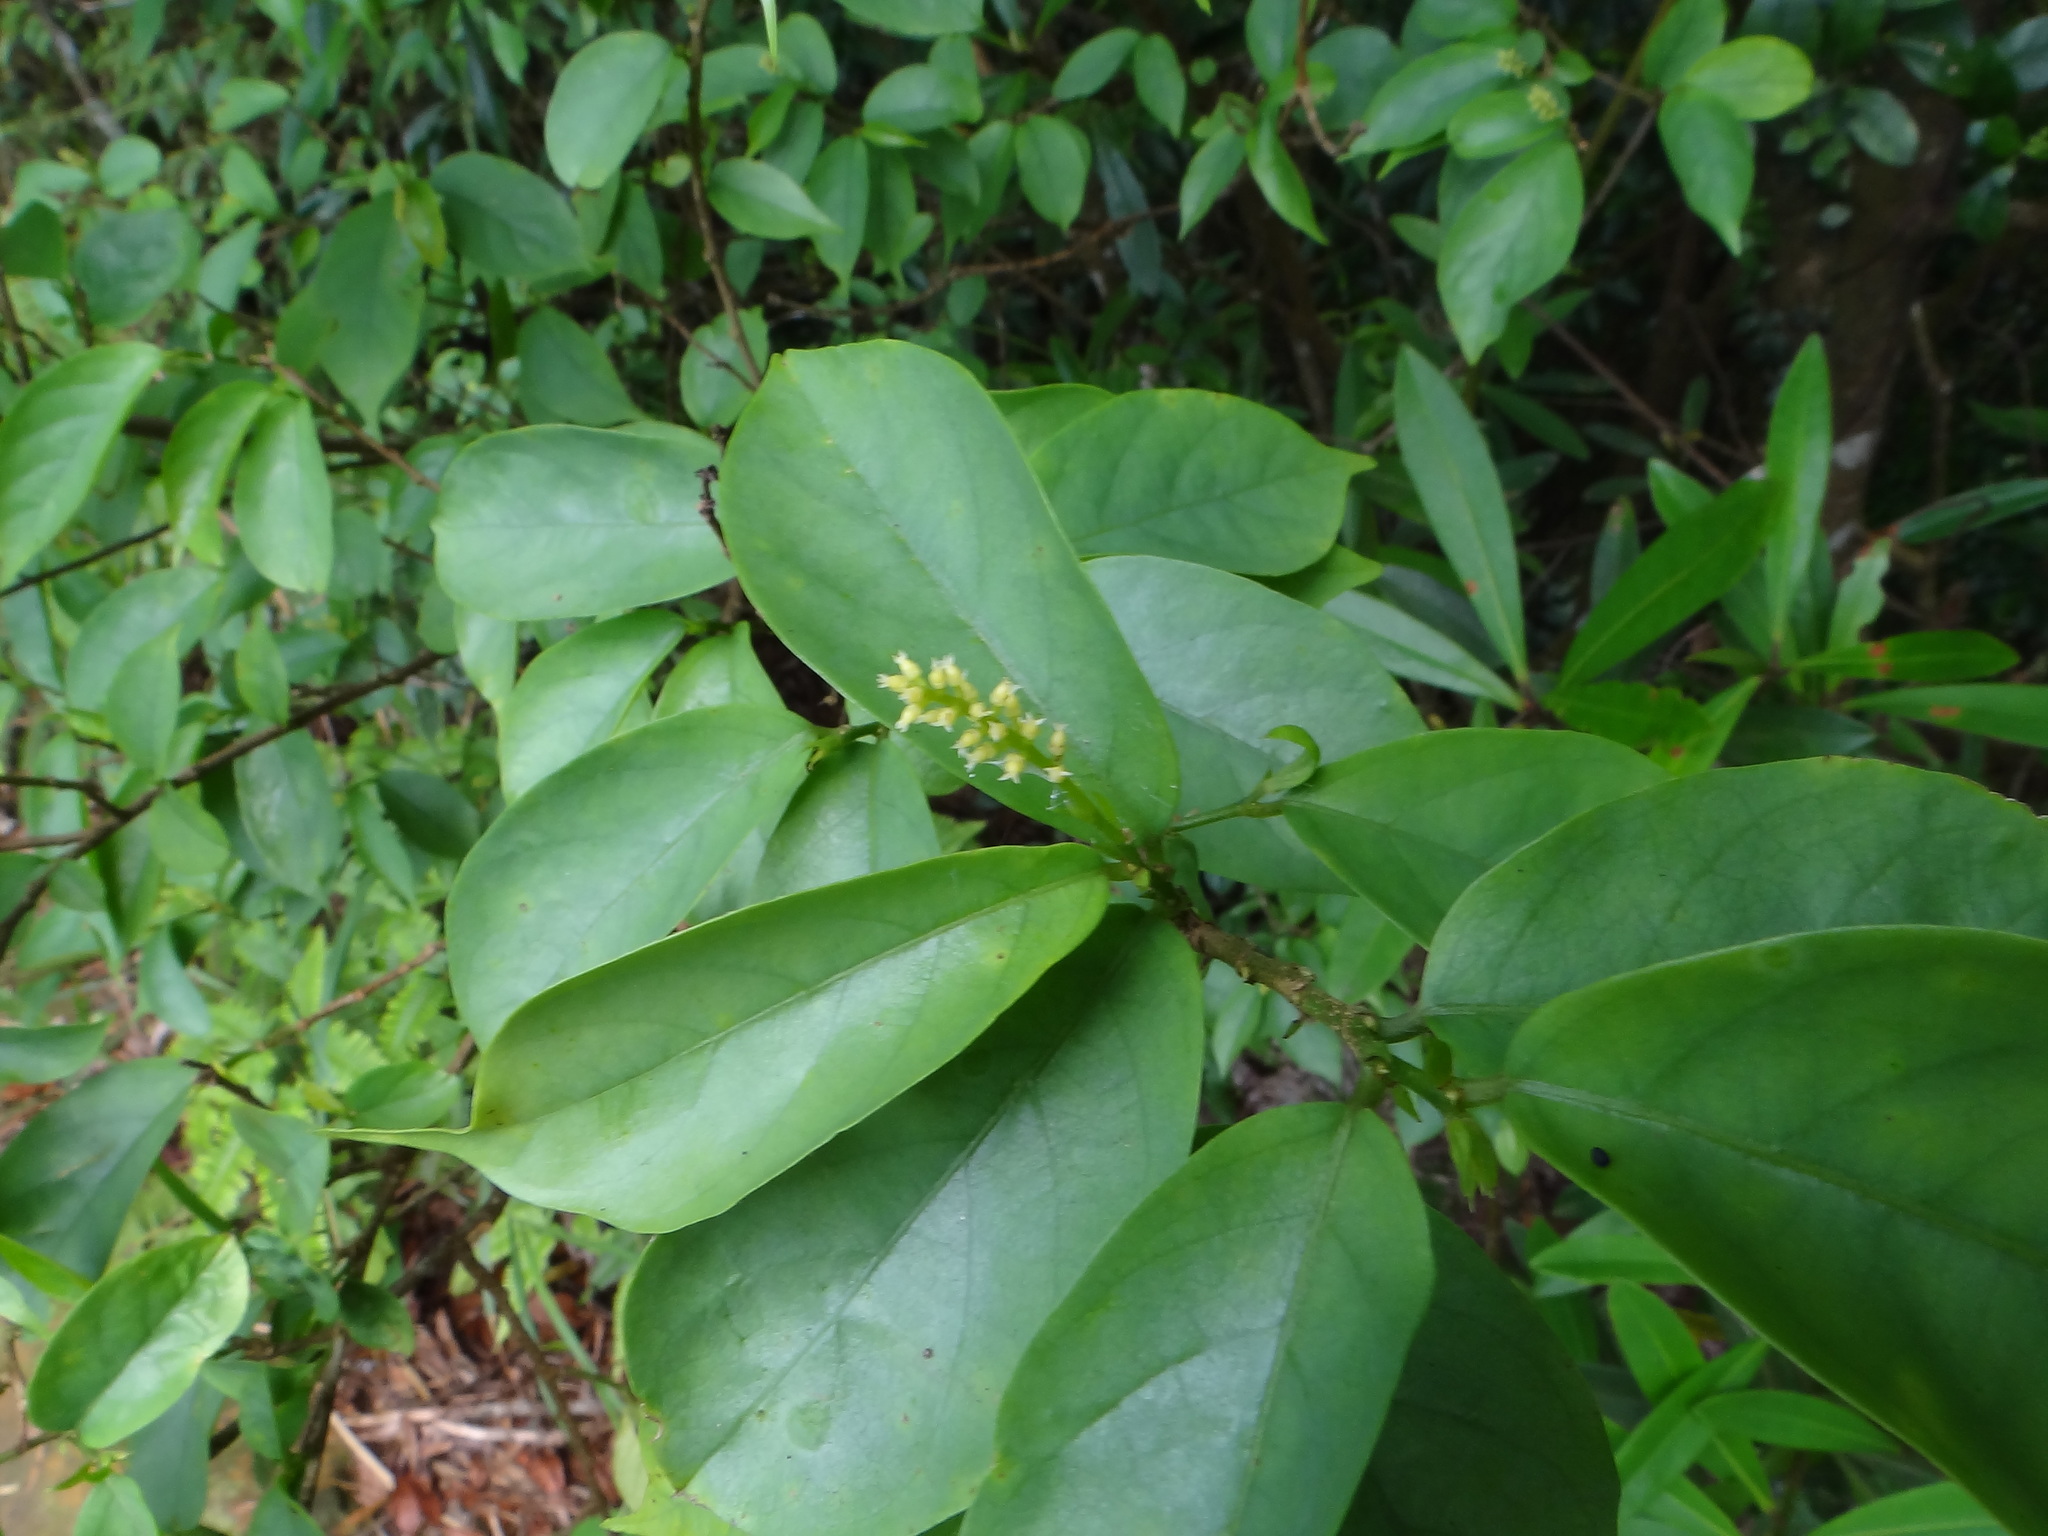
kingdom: Plantae
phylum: Tracheophyta
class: Magnoliopsida
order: Malpighiales
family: Phyllanthaceae
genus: Antidesma
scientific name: Antidesma japonicum
